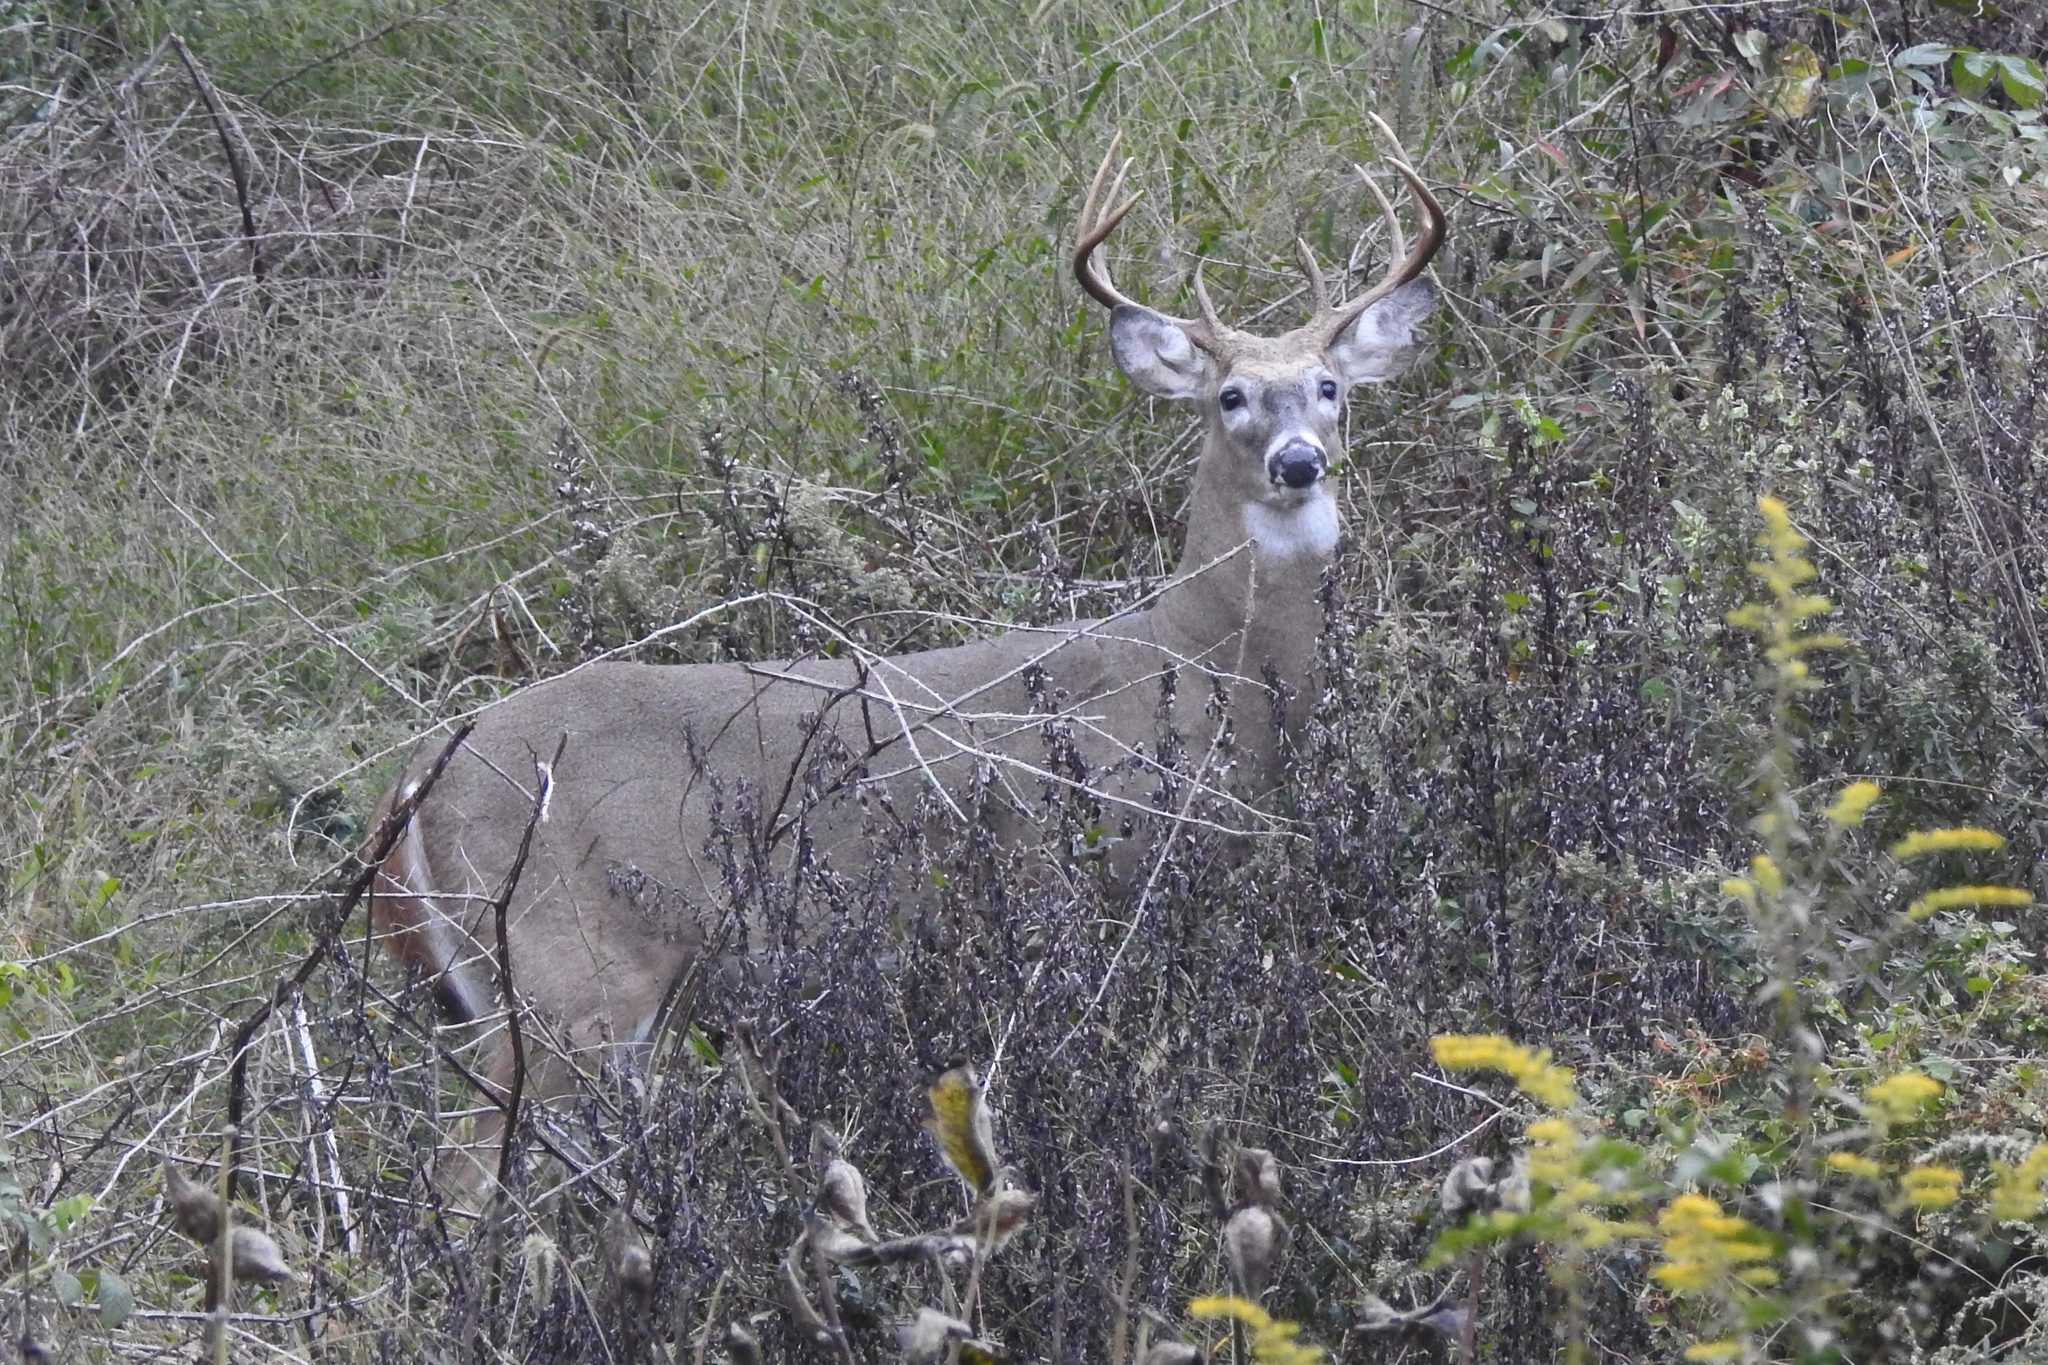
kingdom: Animalia
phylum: Chordata
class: Mammalia
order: Artiodactyla
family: Cervidae
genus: Odocoileus
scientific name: Odocoileus virginianus
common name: White-tailed deer
